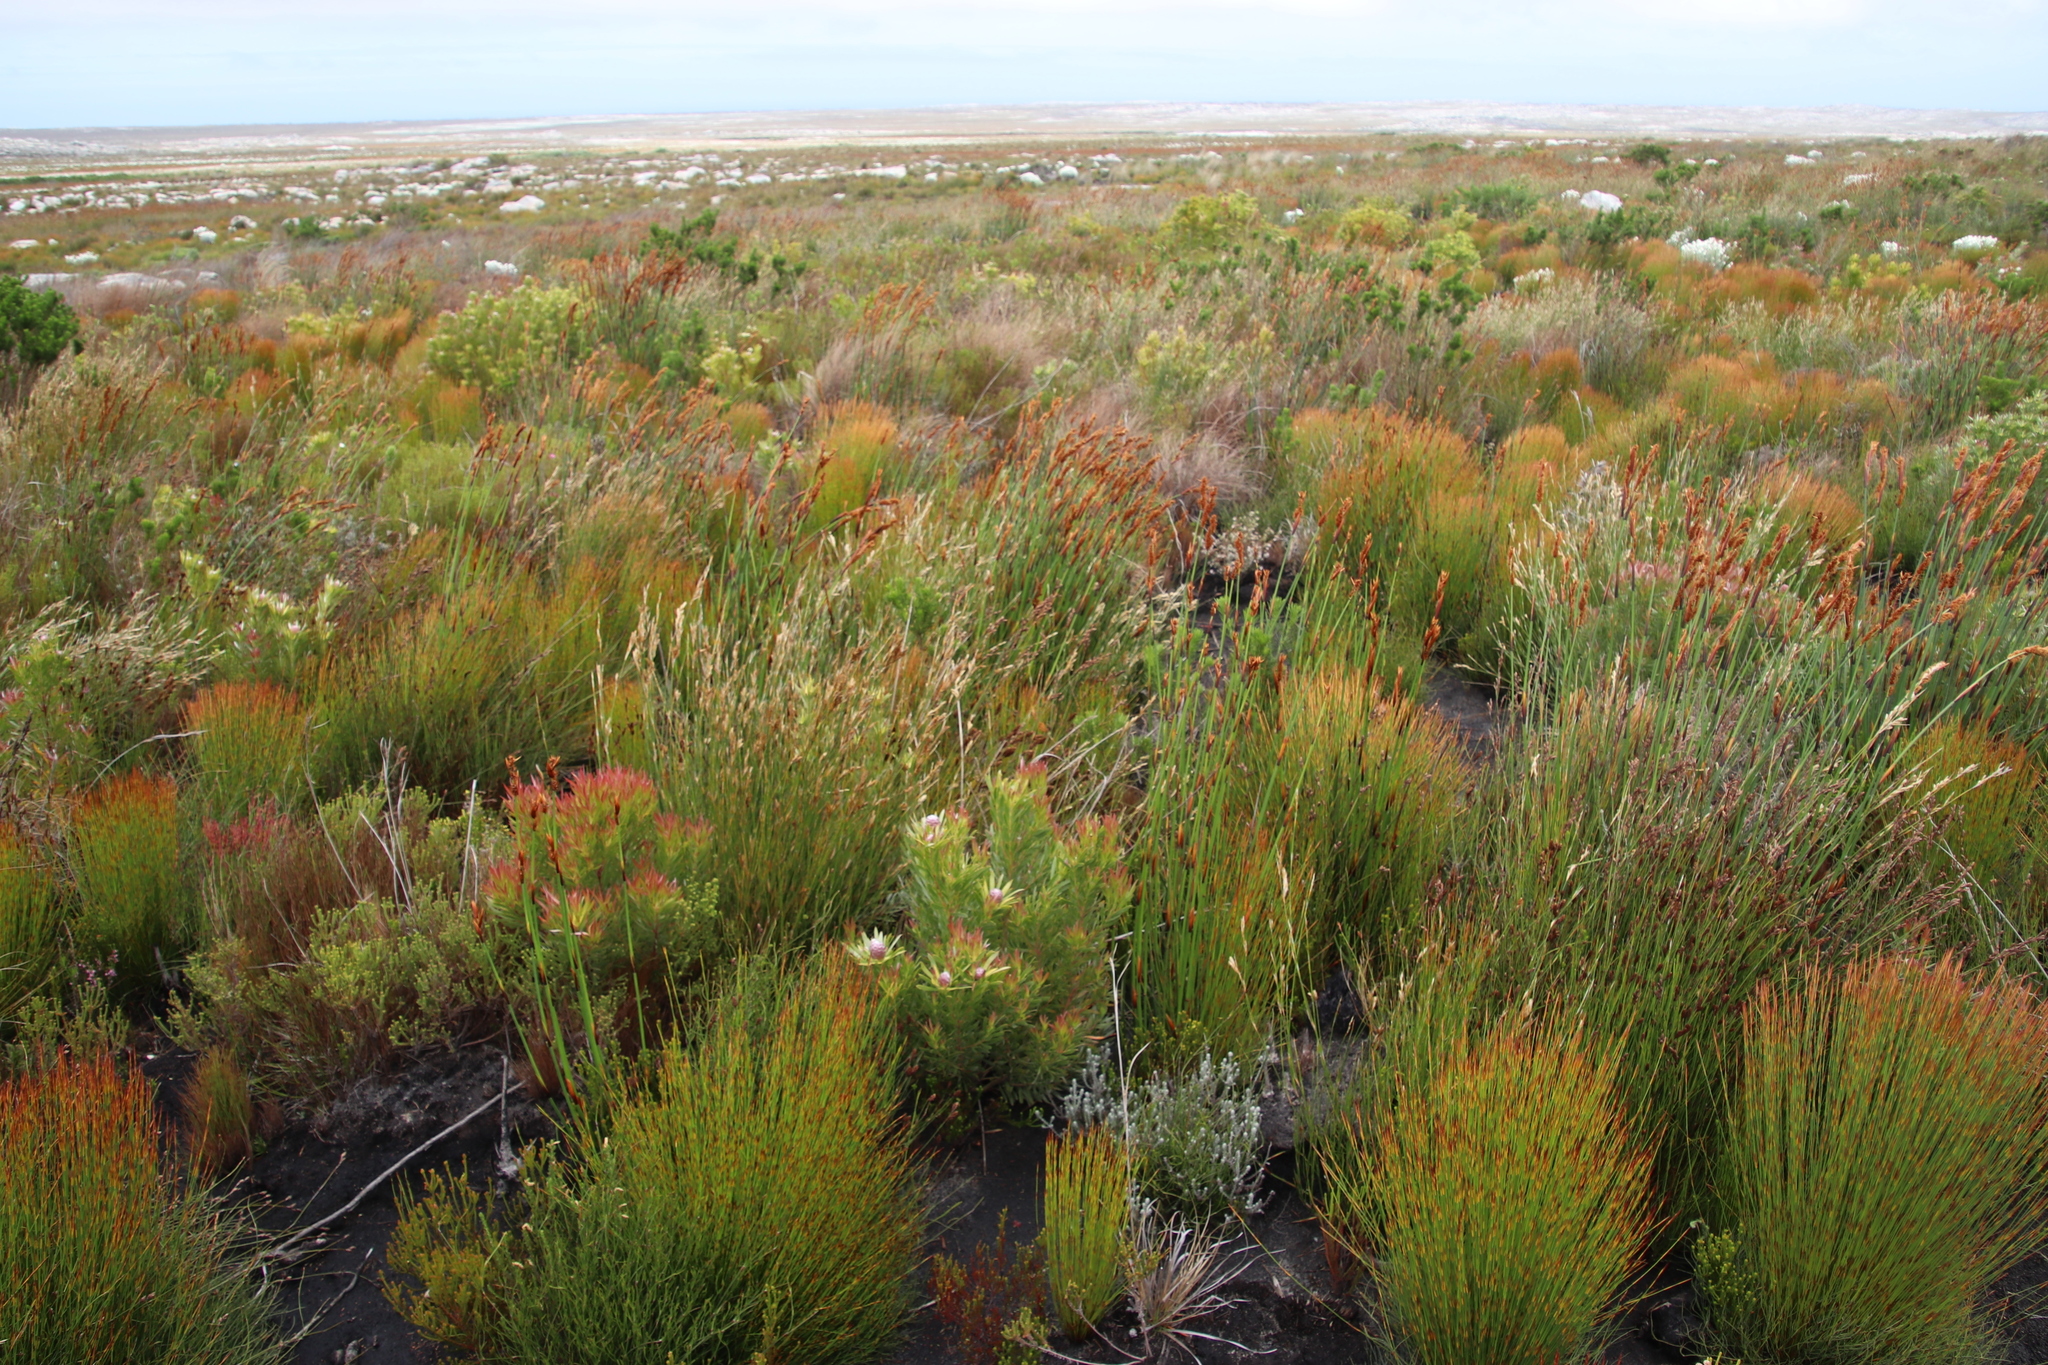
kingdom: Plantae
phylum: Tracheophyta
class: Magnoliopsida
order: Proteales
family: Proteaceae
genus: Leucadendron
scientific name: Leucadendron xanthoconus
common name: Sickle-leaf conebush
